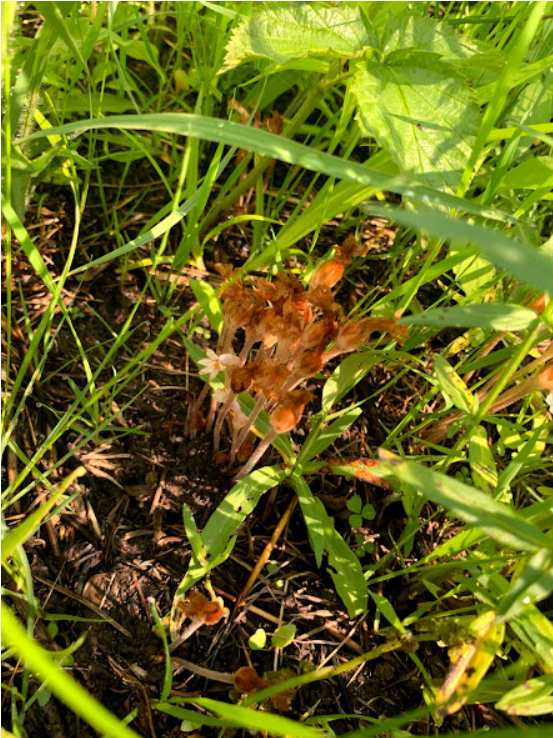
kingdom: Plantae
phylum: Tracheophyta
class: Magnoliopsida
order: Lamiales
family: Orobanchaceae
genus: Aphyllon
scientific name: Aphyllon uniflorum
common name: One-flowered broomrape
